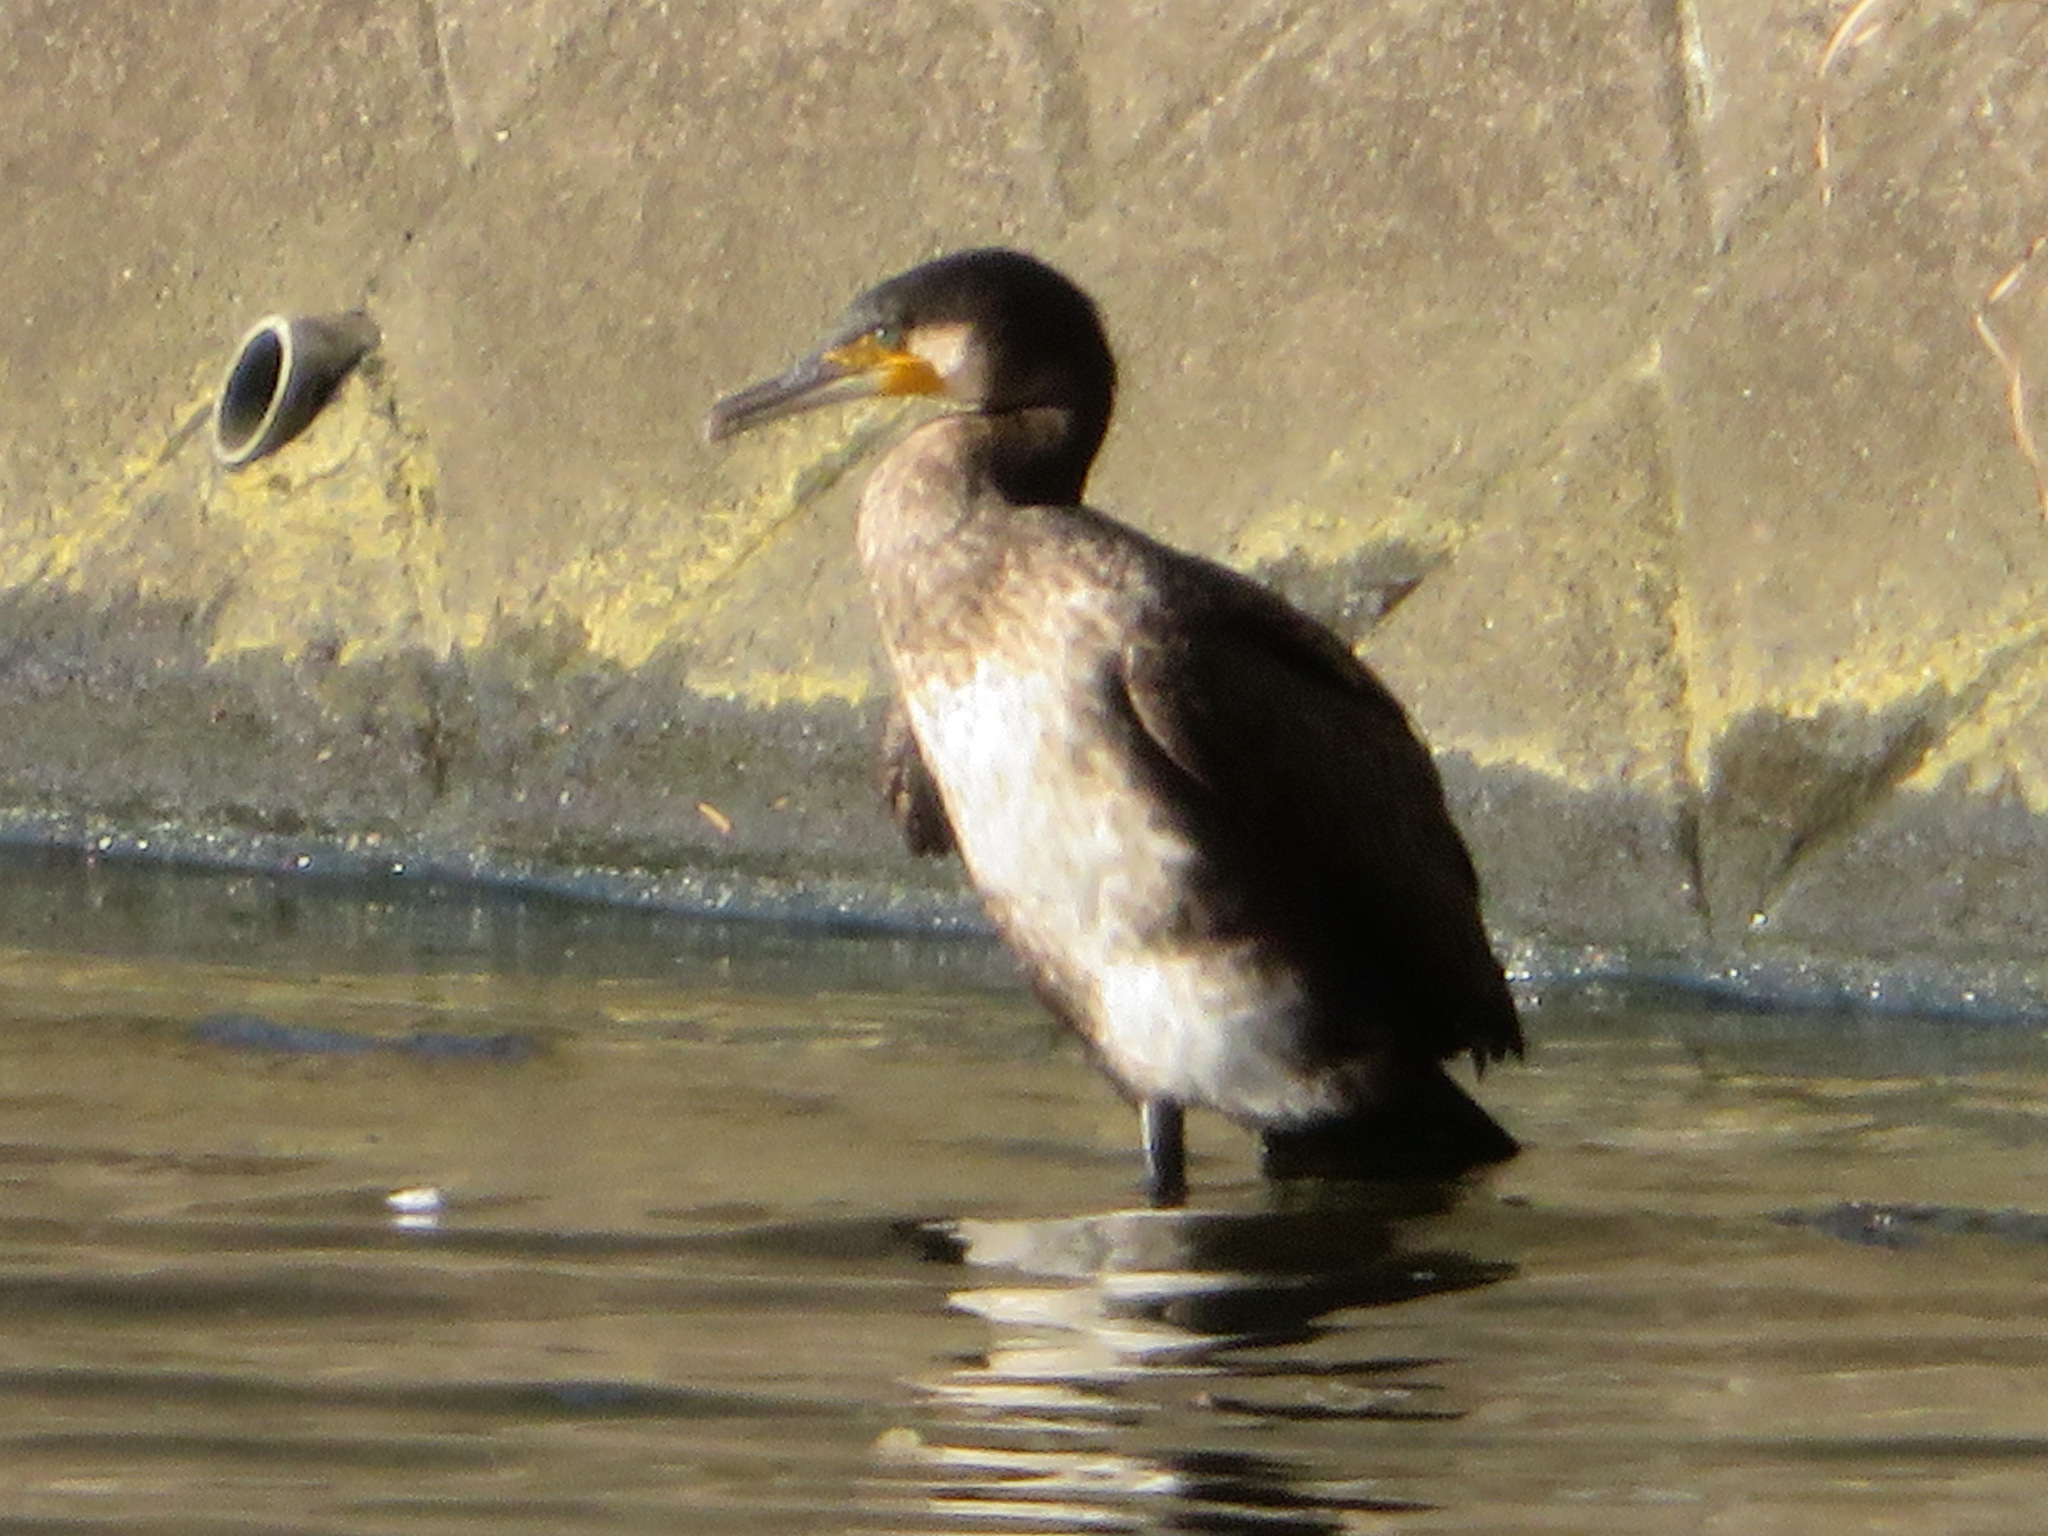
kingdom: Animalia
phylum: Chordata
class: Aves
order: Suliformes
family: Phalacrocoracidae
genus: Phalacrocorax
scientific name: Phalacrocorax carbo
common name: Great cormorant
